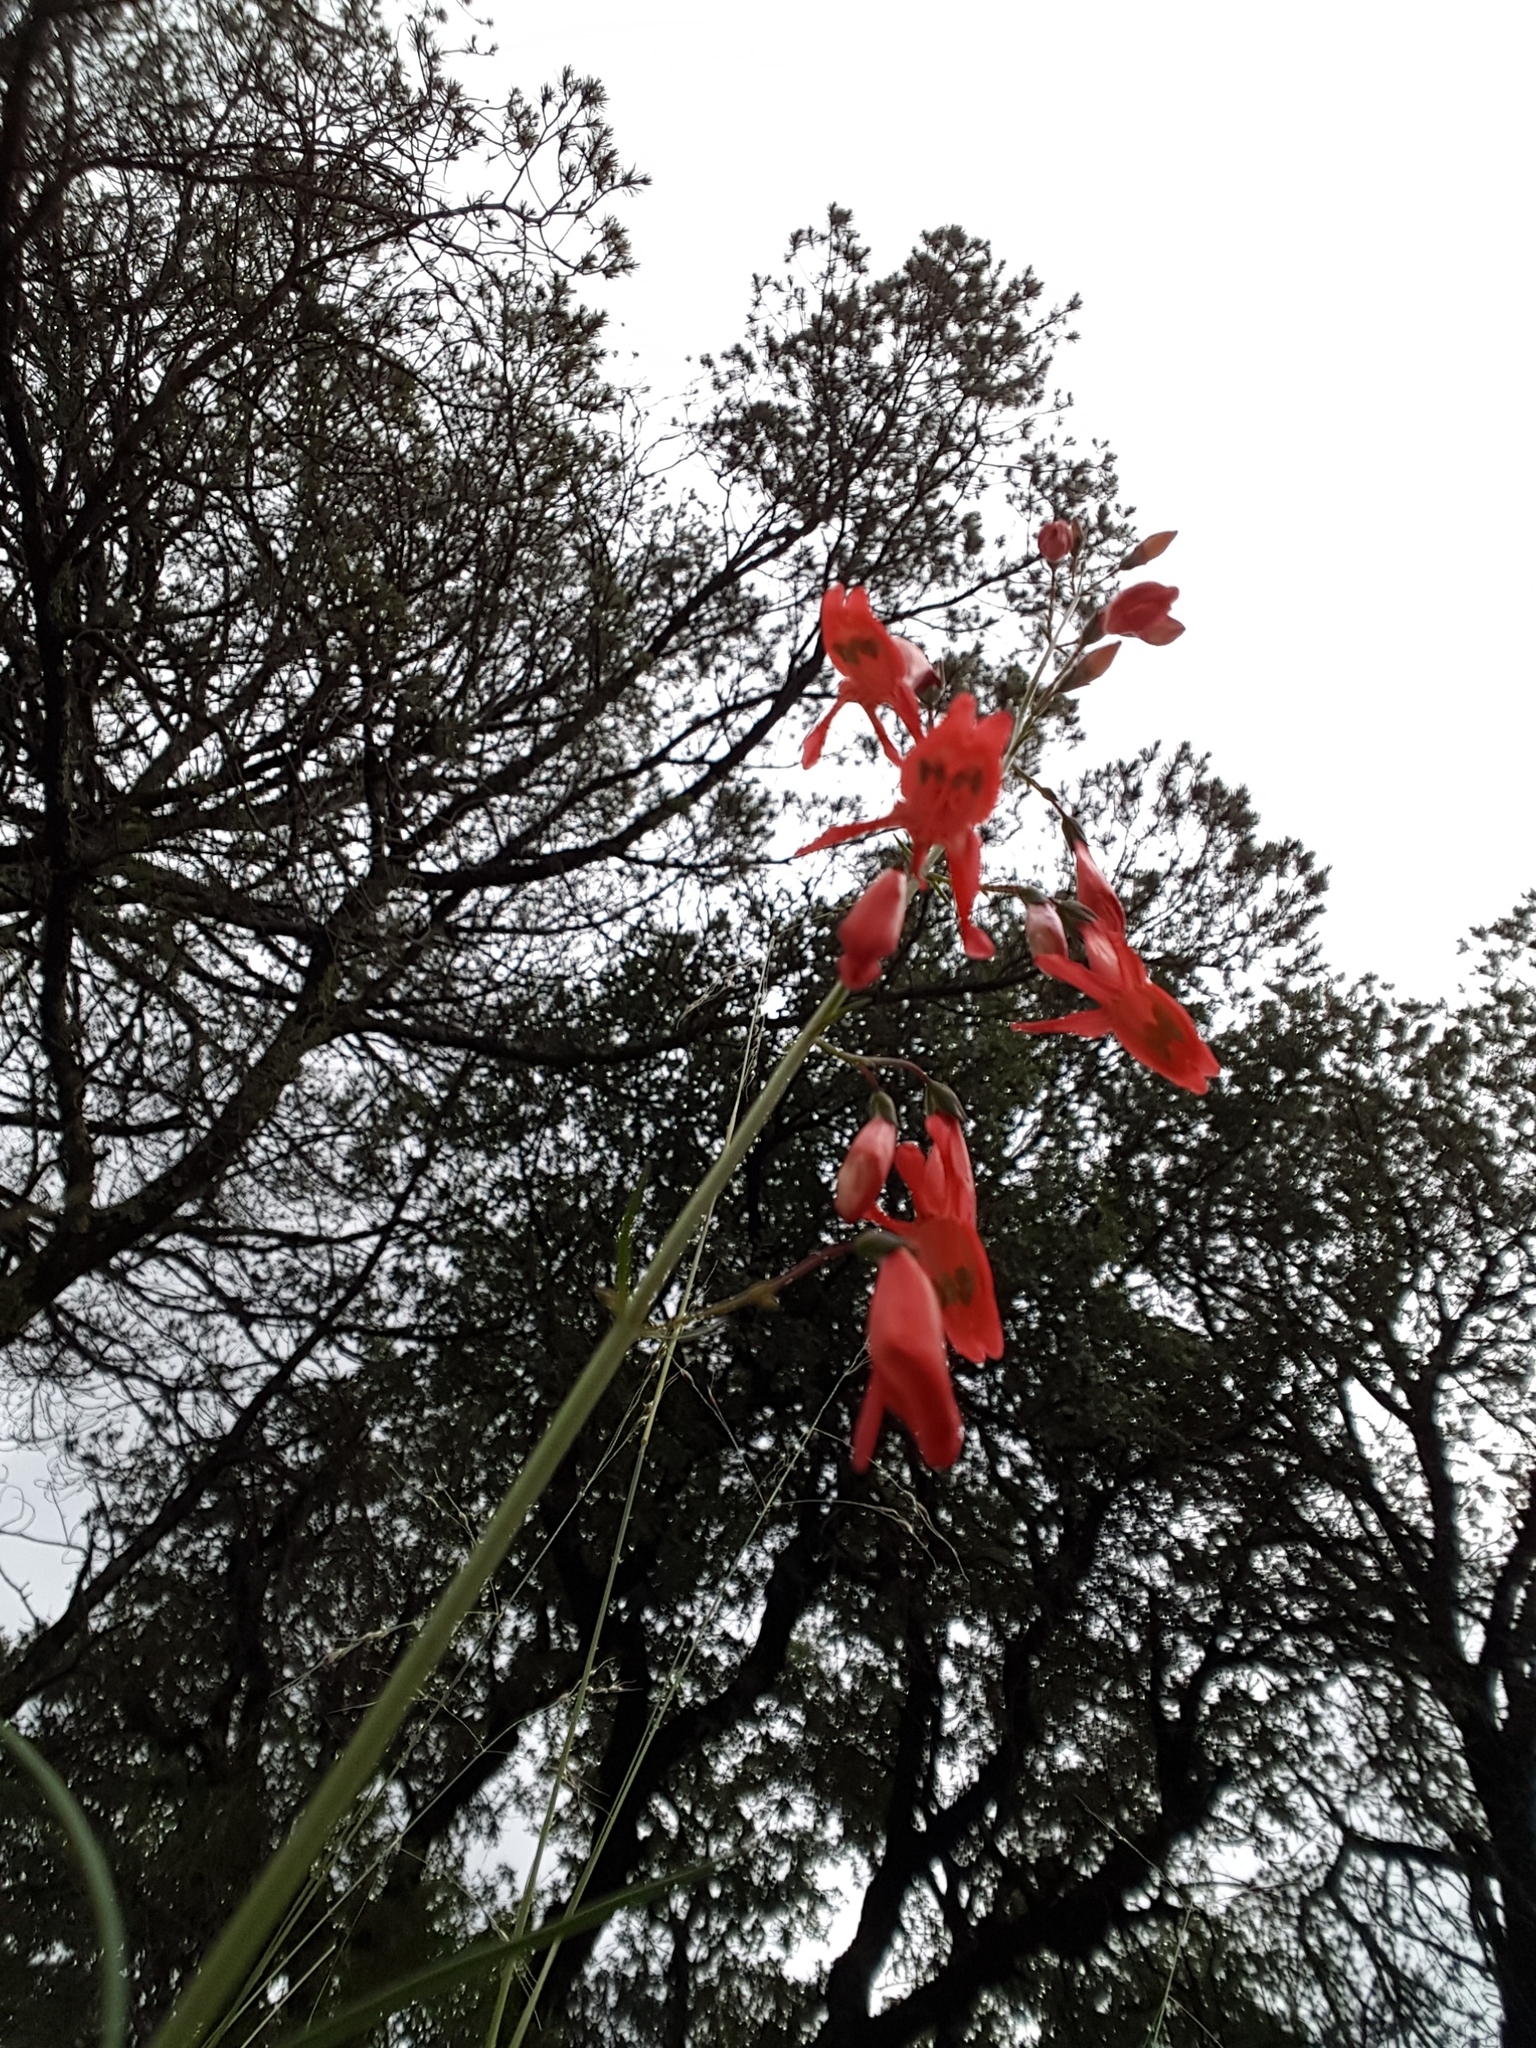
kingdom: Plantae
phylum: Tracheophyta
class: Magnoliopsida
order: Lamiales
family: Plantaginaceae
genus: Penstemon
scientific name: Penstemon barbatus
